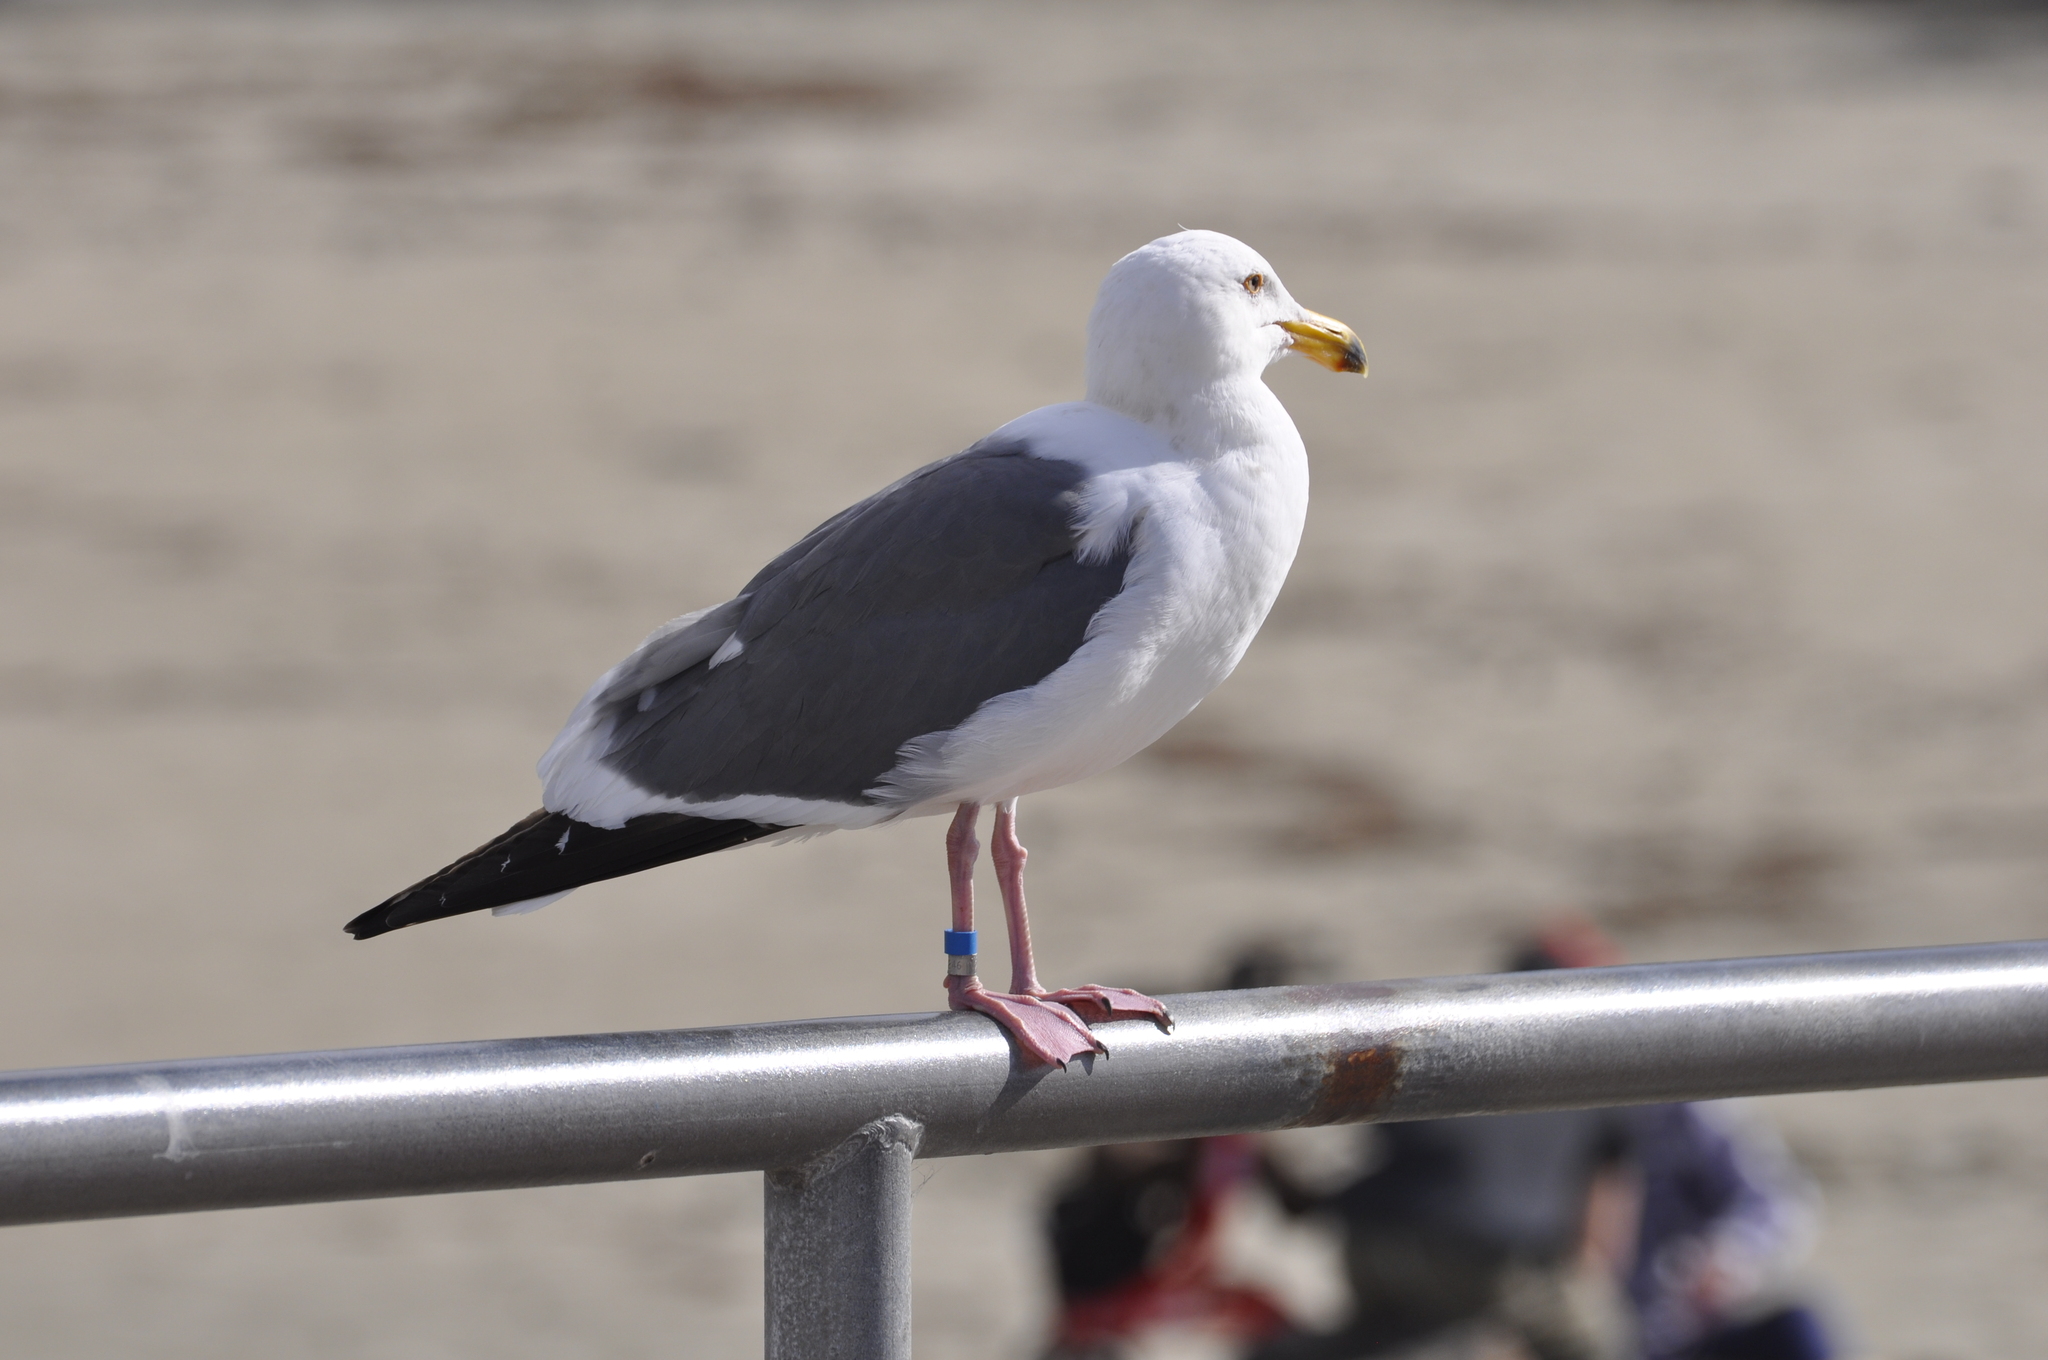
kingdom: Animalia
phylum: Chordata
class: Aves
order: Charadriiformes
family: Laridae
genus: Larus
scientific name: Larus occidentalis
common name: Western gull
